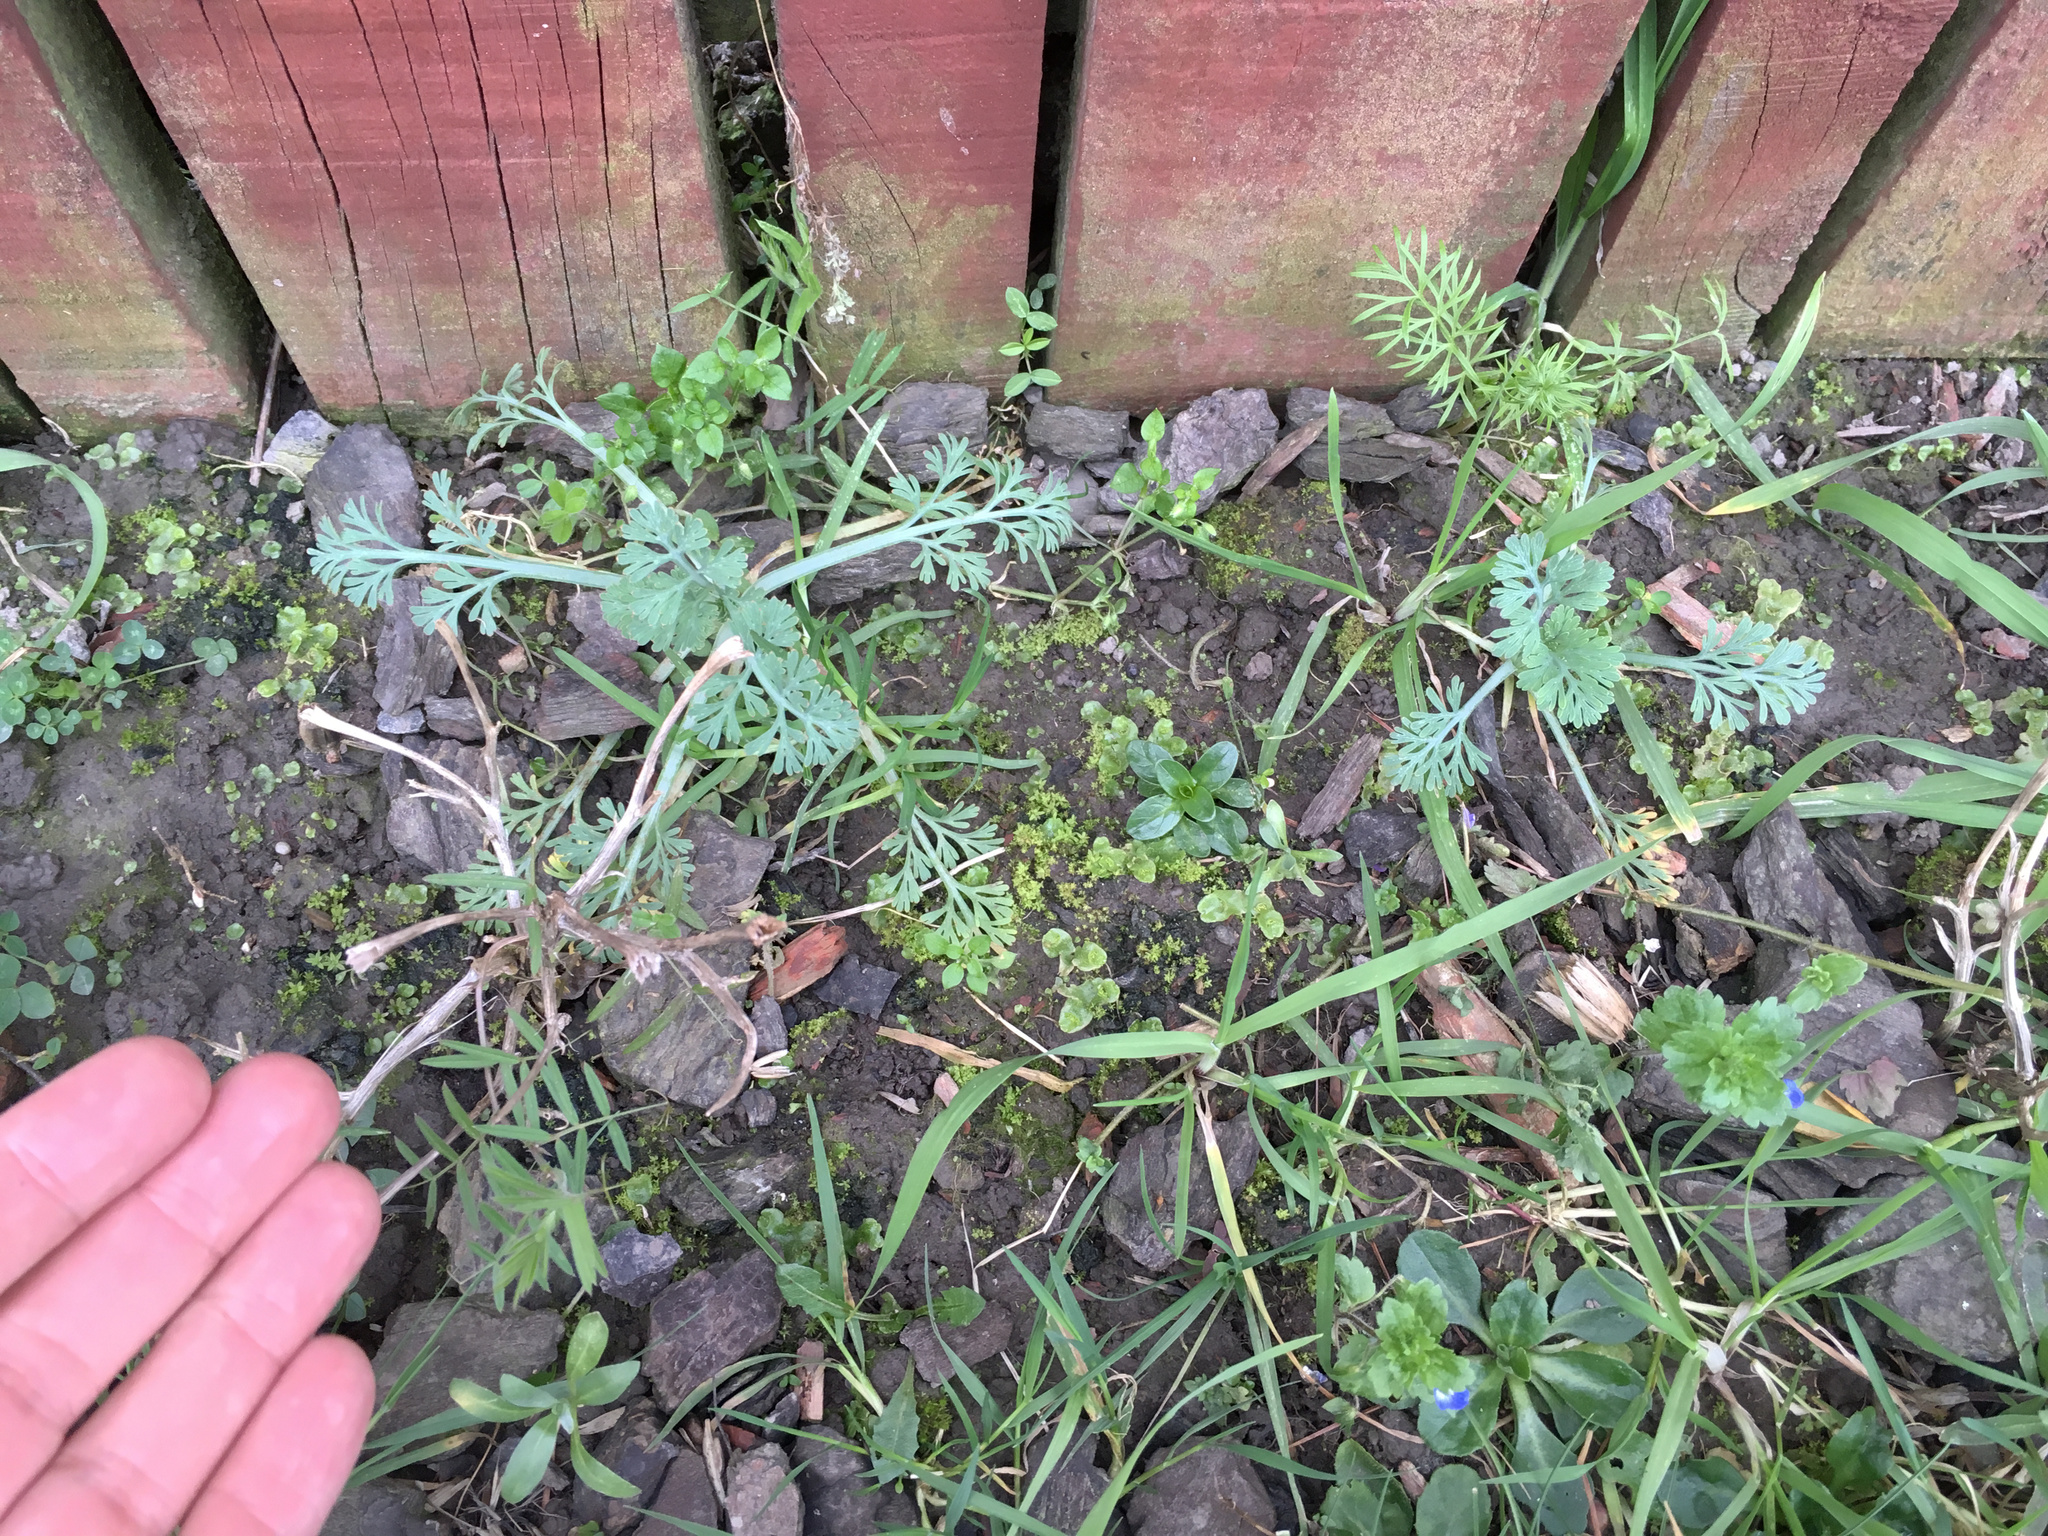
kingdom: Plantae
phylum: Tracheophyta
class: Magnoliopsida
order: Ranunculales
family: Papaveraceae
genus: Eschscholzia
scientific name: Eschscholzia californica
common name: California poppy
